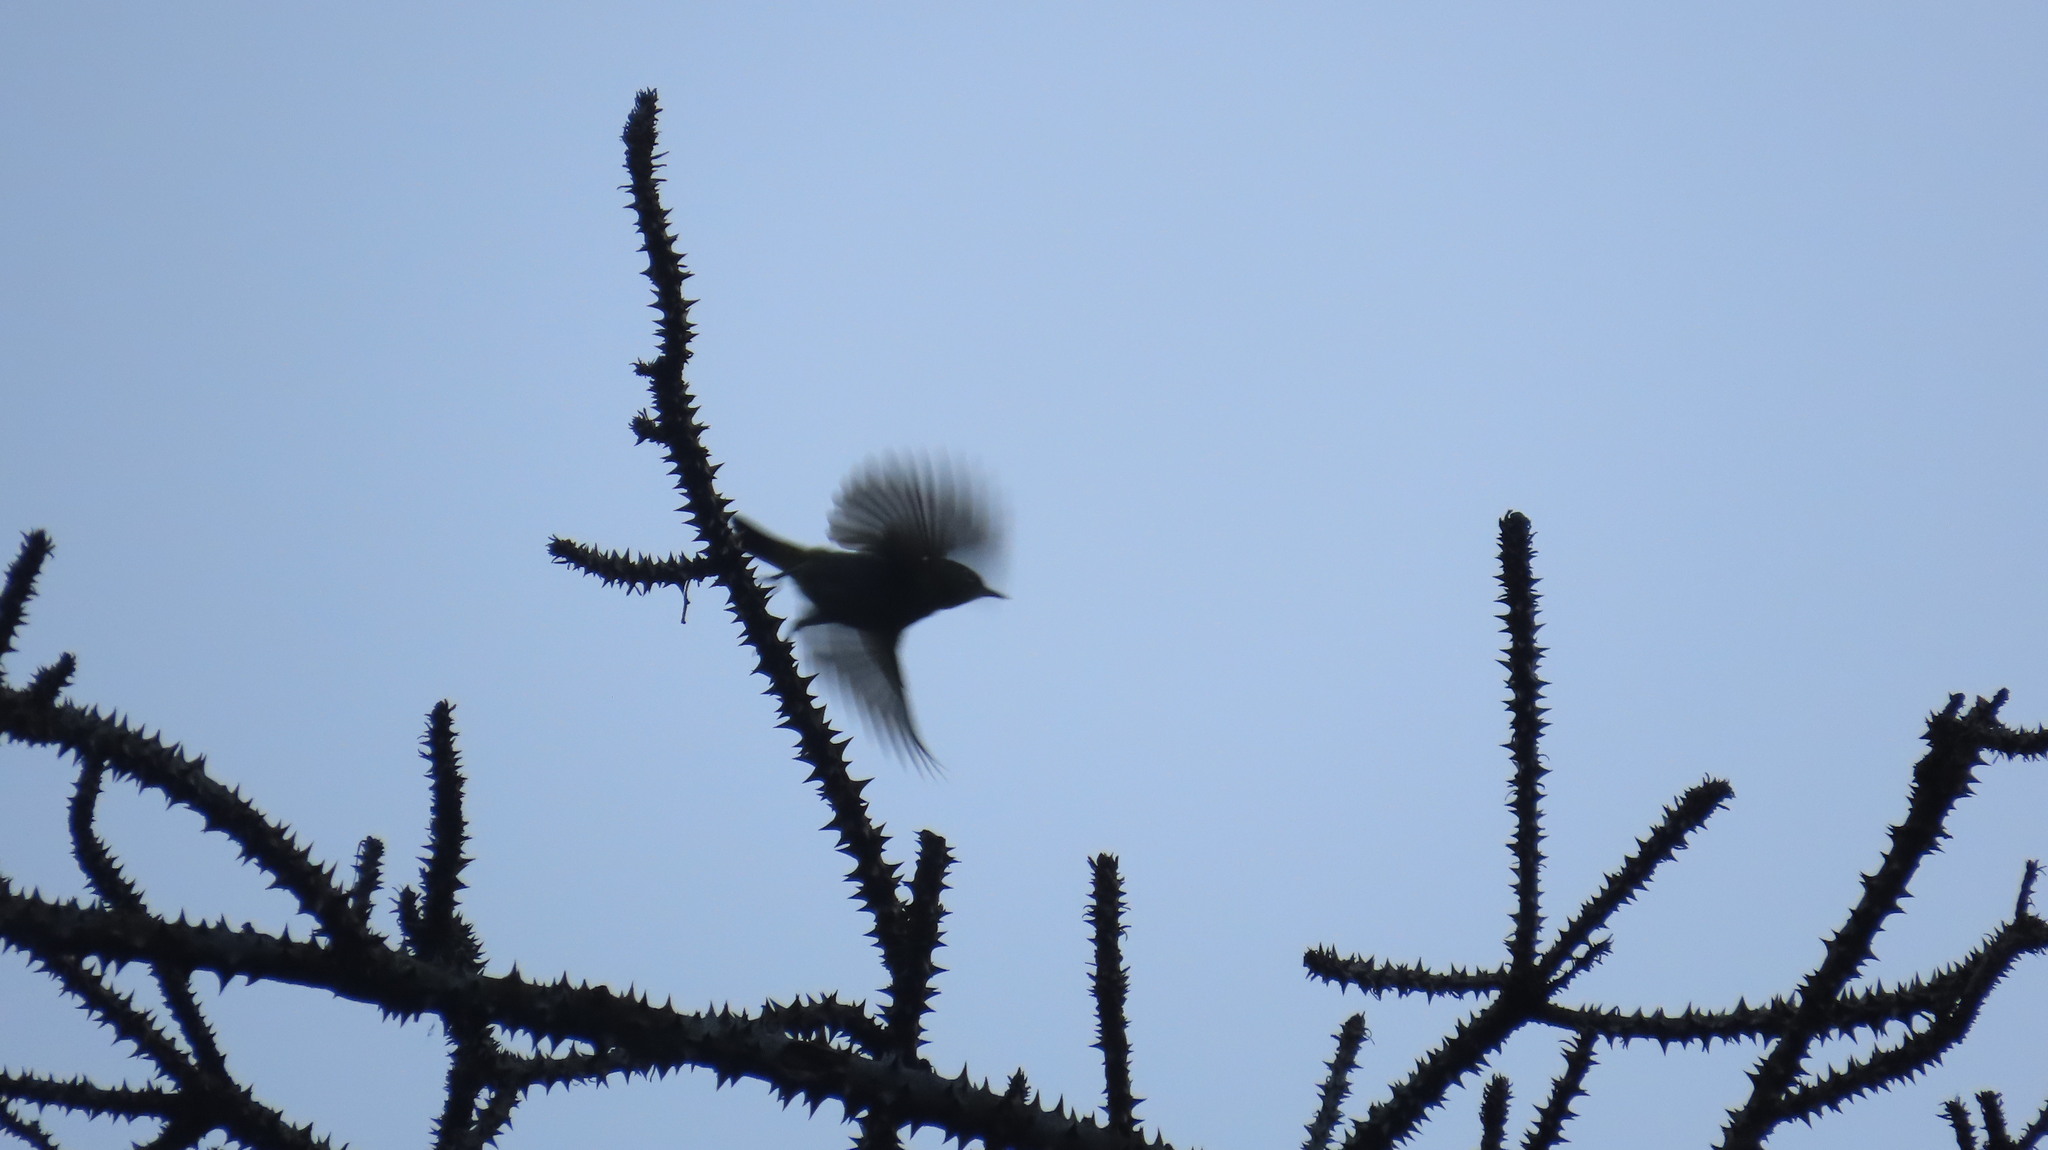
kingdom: Animalia
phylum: Chordata
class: Aves
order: Passeriformes
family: Zosteropidae
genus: Zosterops
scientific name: Zosterops palpebrosus
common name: Oriental white-eye
